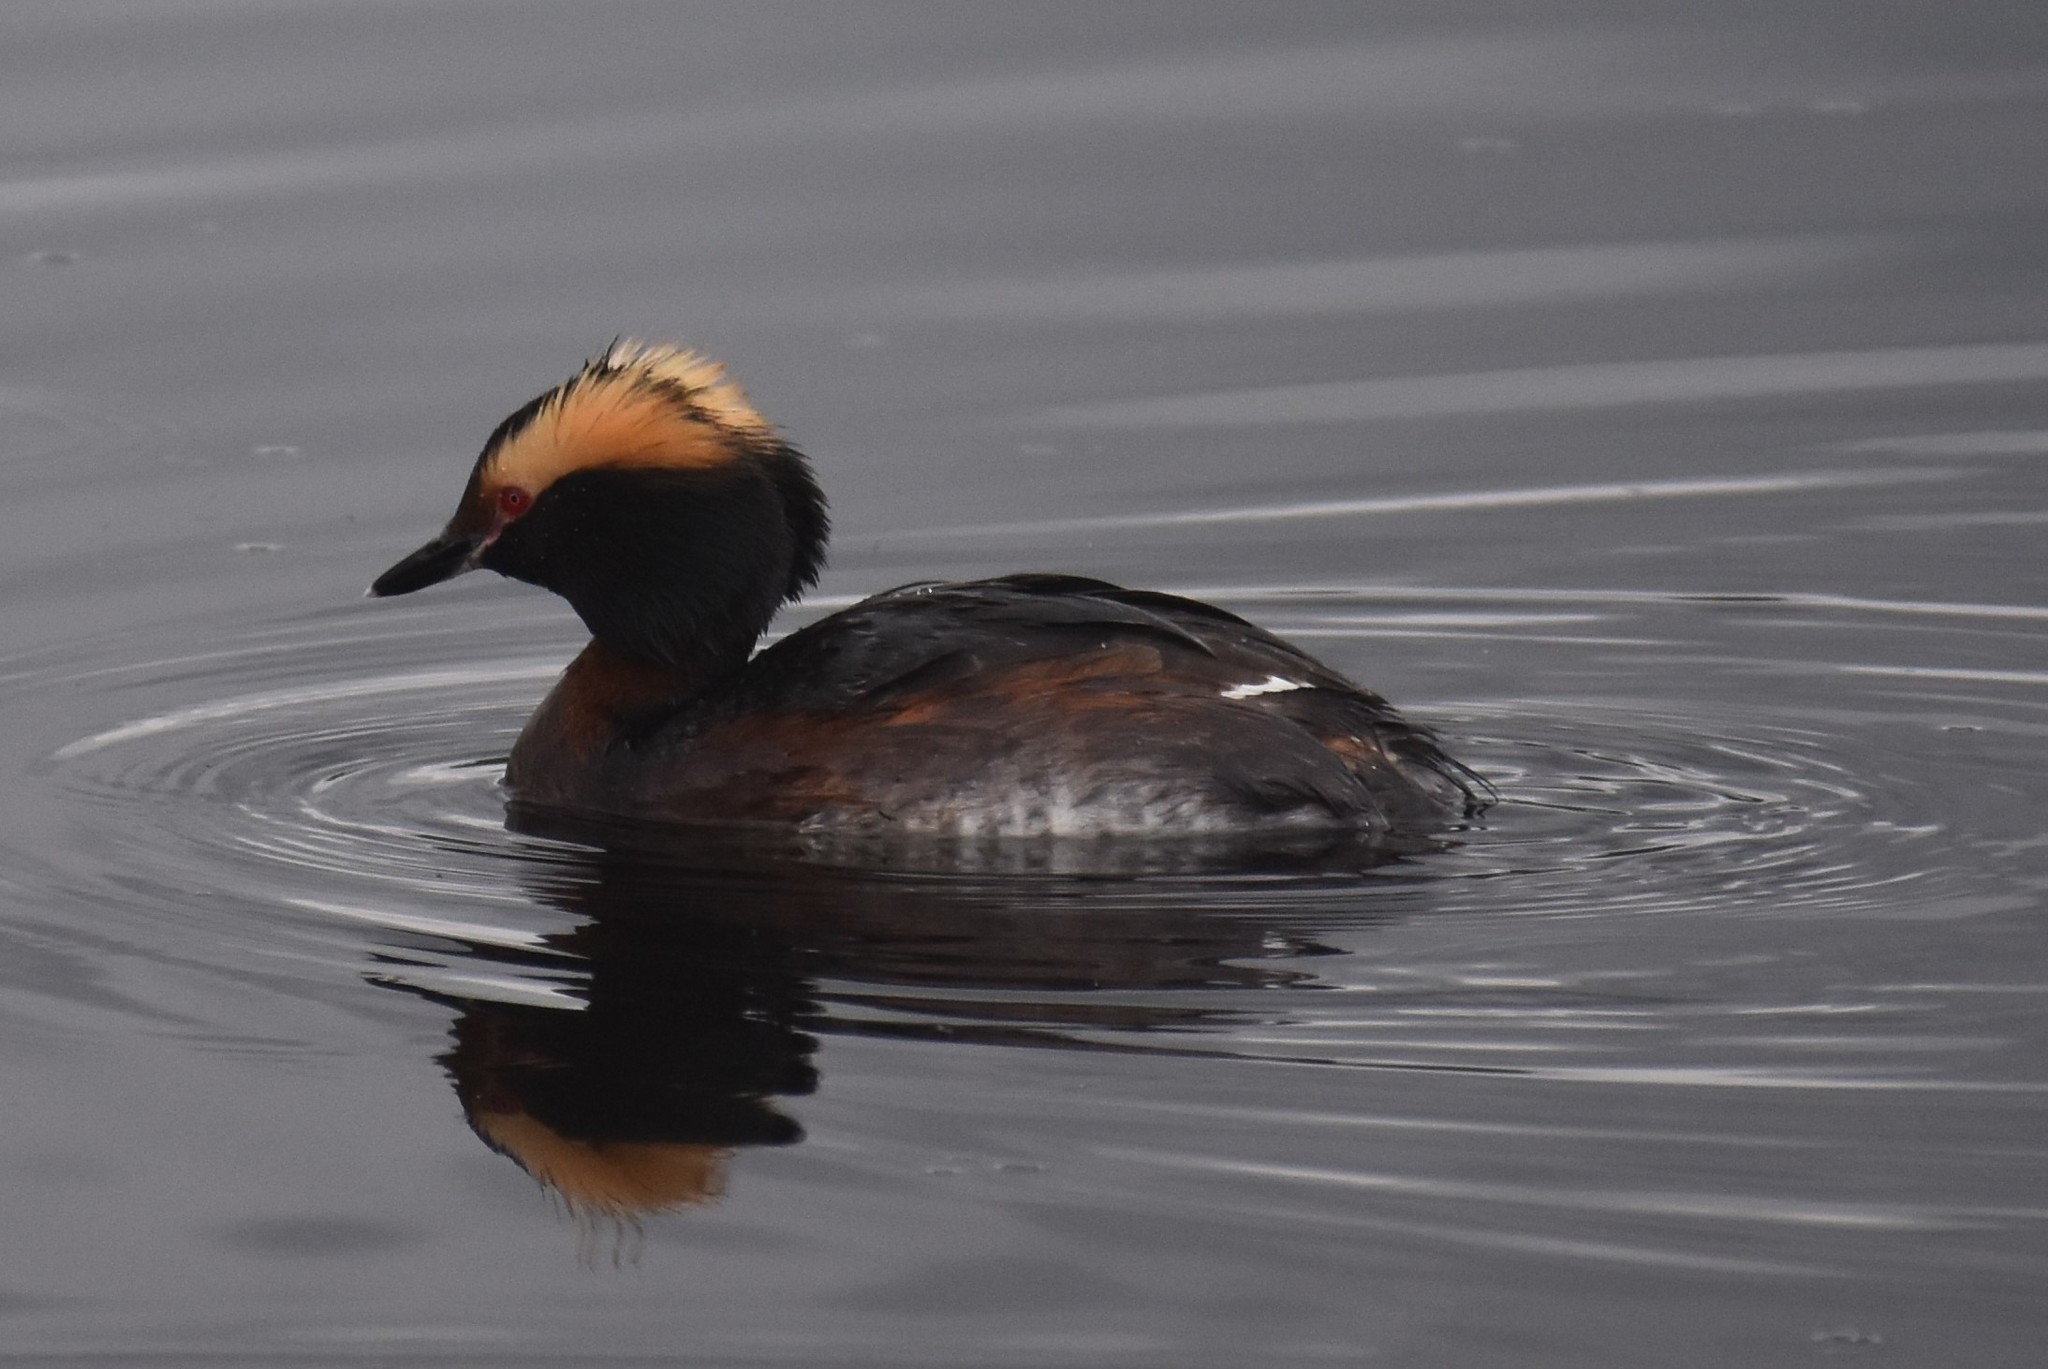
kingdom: Animalia
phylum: Chordata
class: Aves
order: Podicipediformes
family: Podicipedidae
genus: Podiceps
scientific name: Podiceps auritus
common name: Horned grebe
